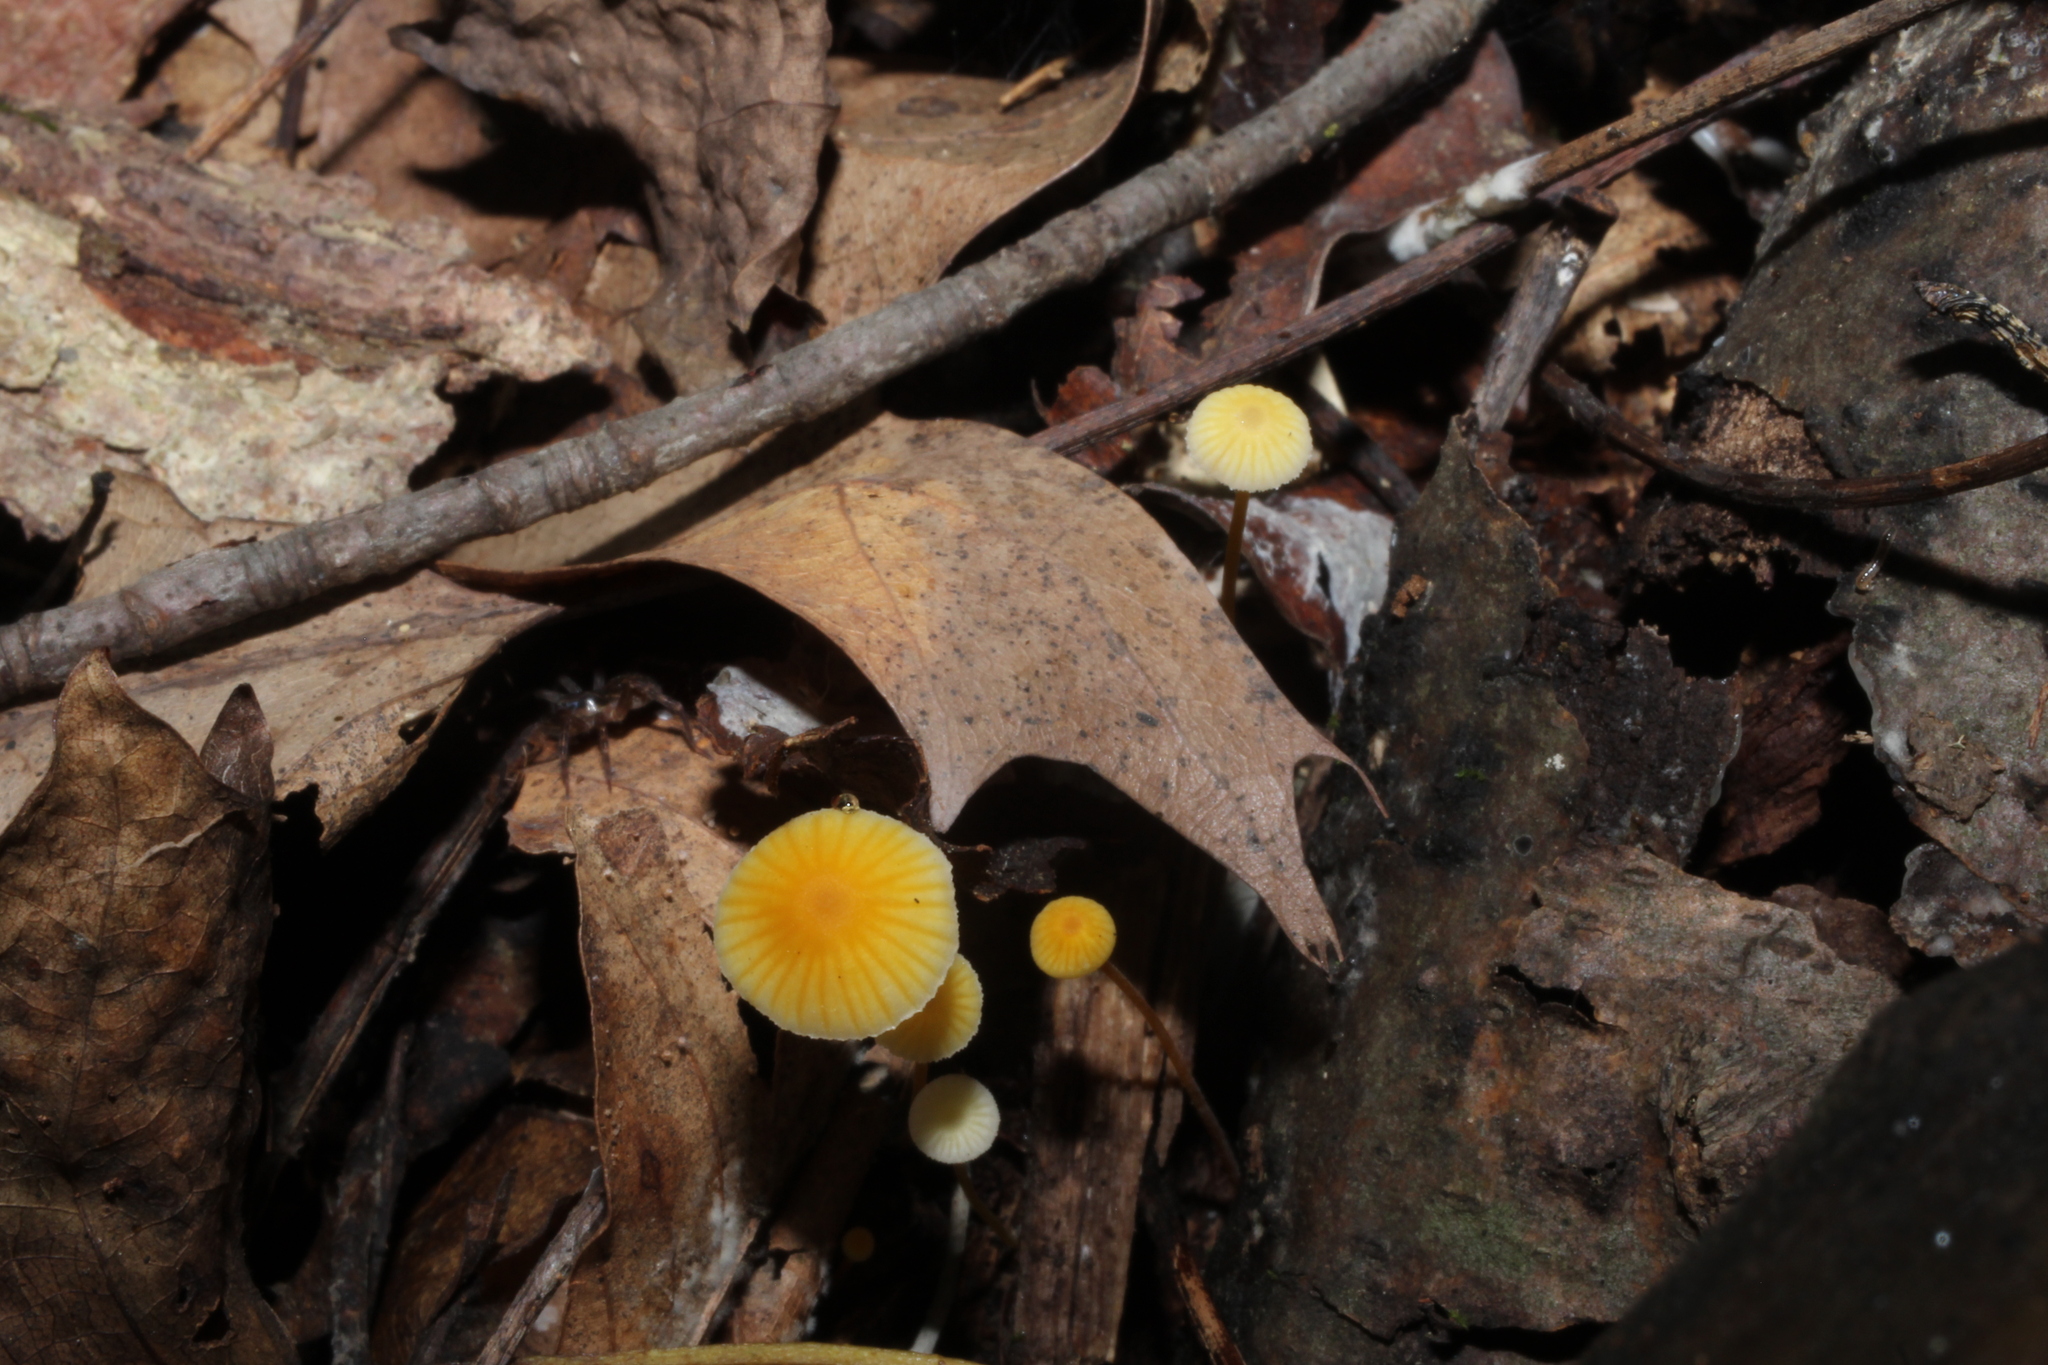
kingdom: Fungi
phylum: Basidiomycota
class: Agaricomycetes
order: Agaricales
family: Mycenaceae
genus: Mycena
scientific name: Mycena crocea
